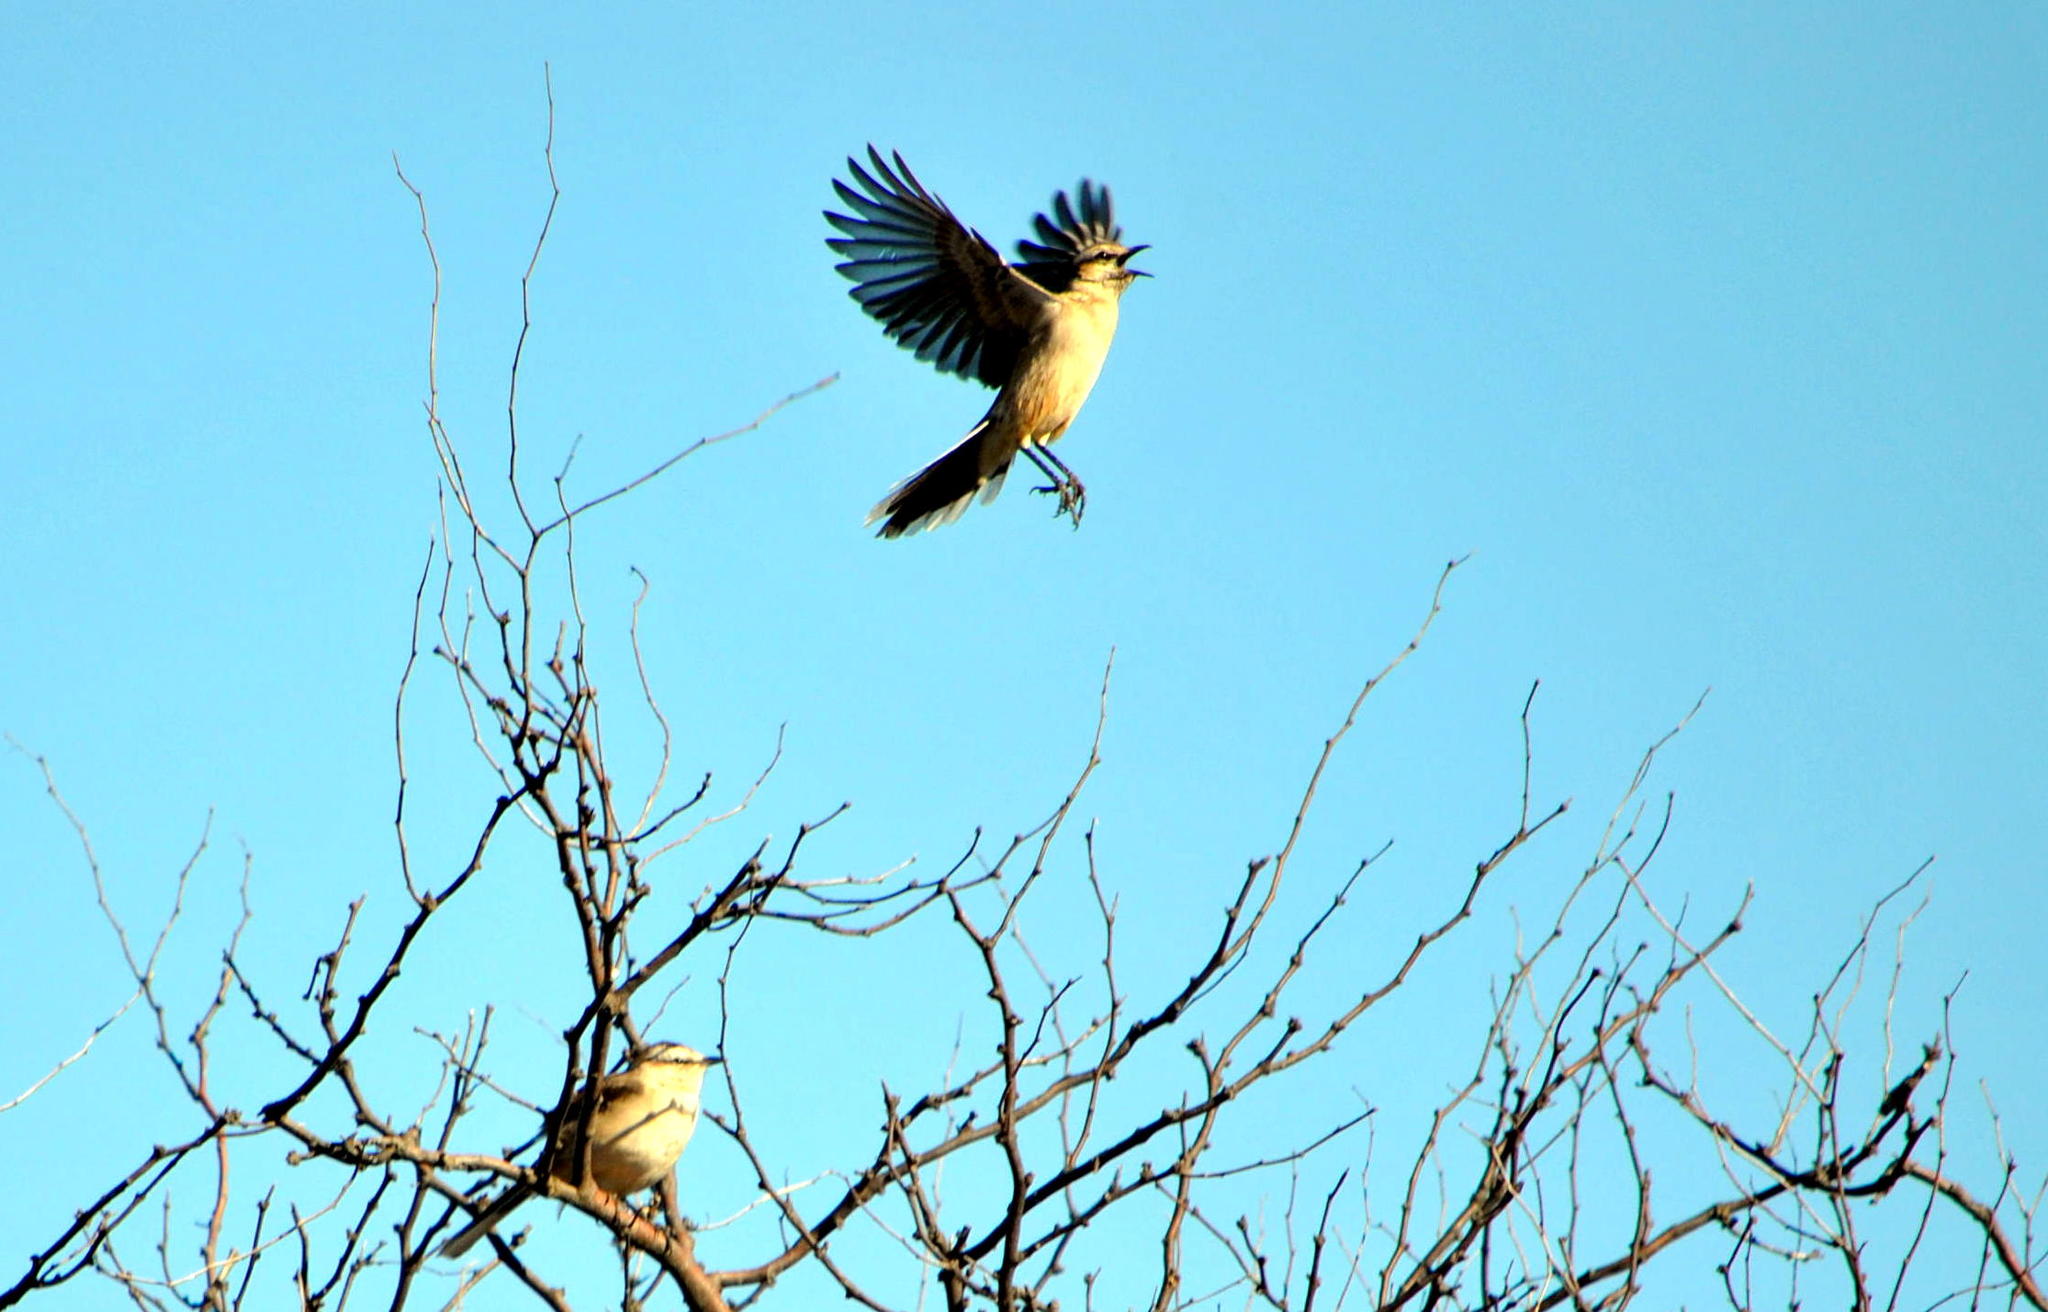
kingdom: Animalia
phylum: Chordata
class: Aves
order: Passeriformes
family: Mimidae
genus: Mimus
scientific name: Mimus saturninus
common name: Chalk-browed mockingbird
